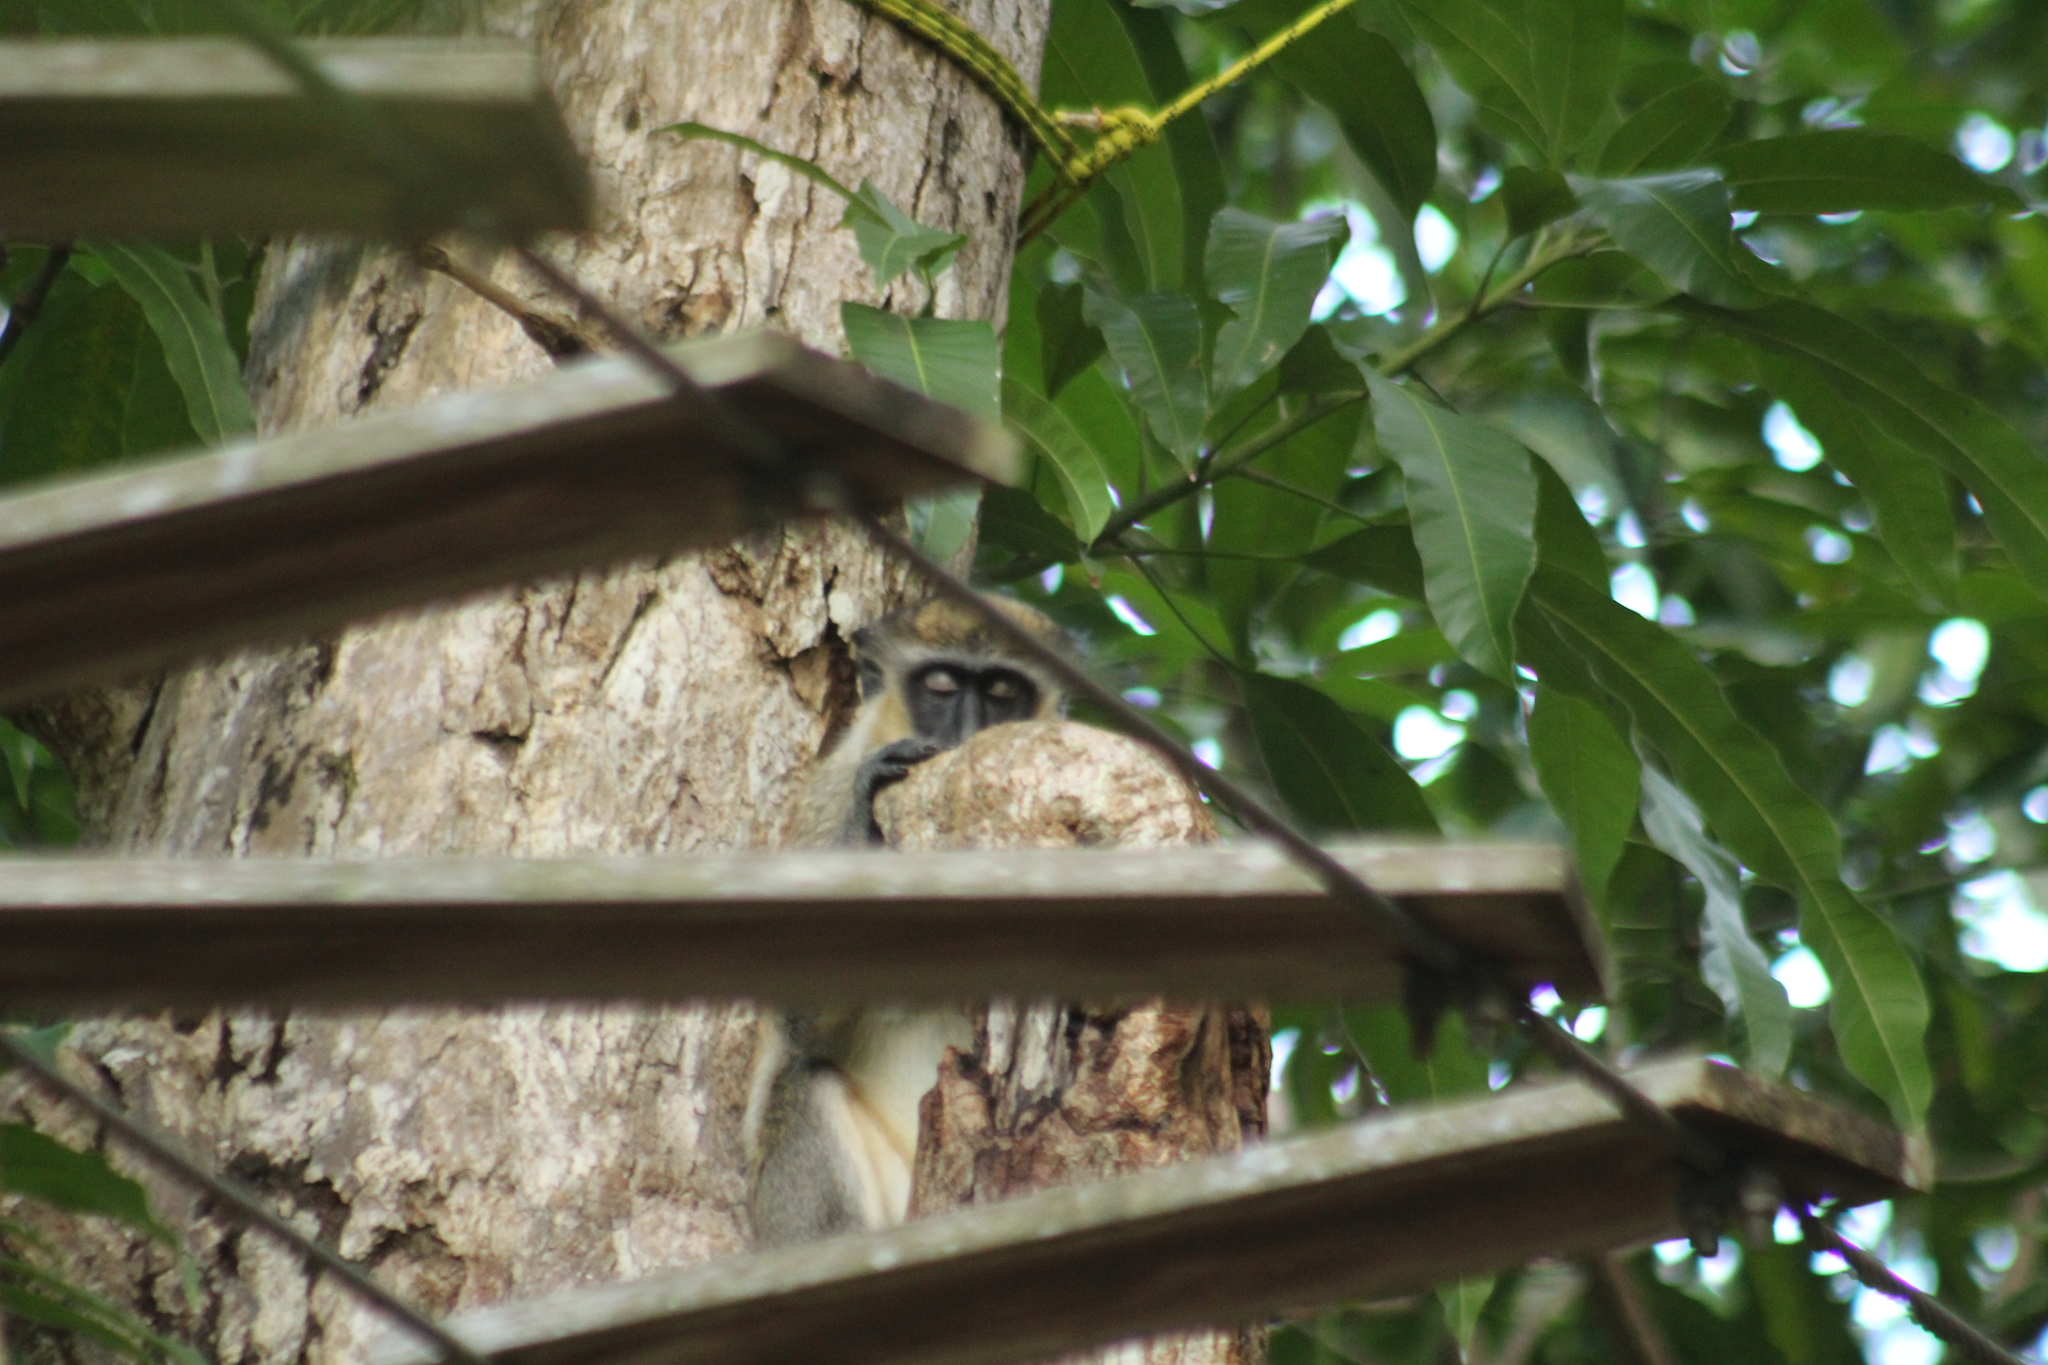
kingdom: Animalia
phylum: Chordata
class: Mammalia
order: Primates
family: Cercopithecidae
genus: Chlorocebus
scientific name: Chlorocebus sabaeus
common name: Green monkey
